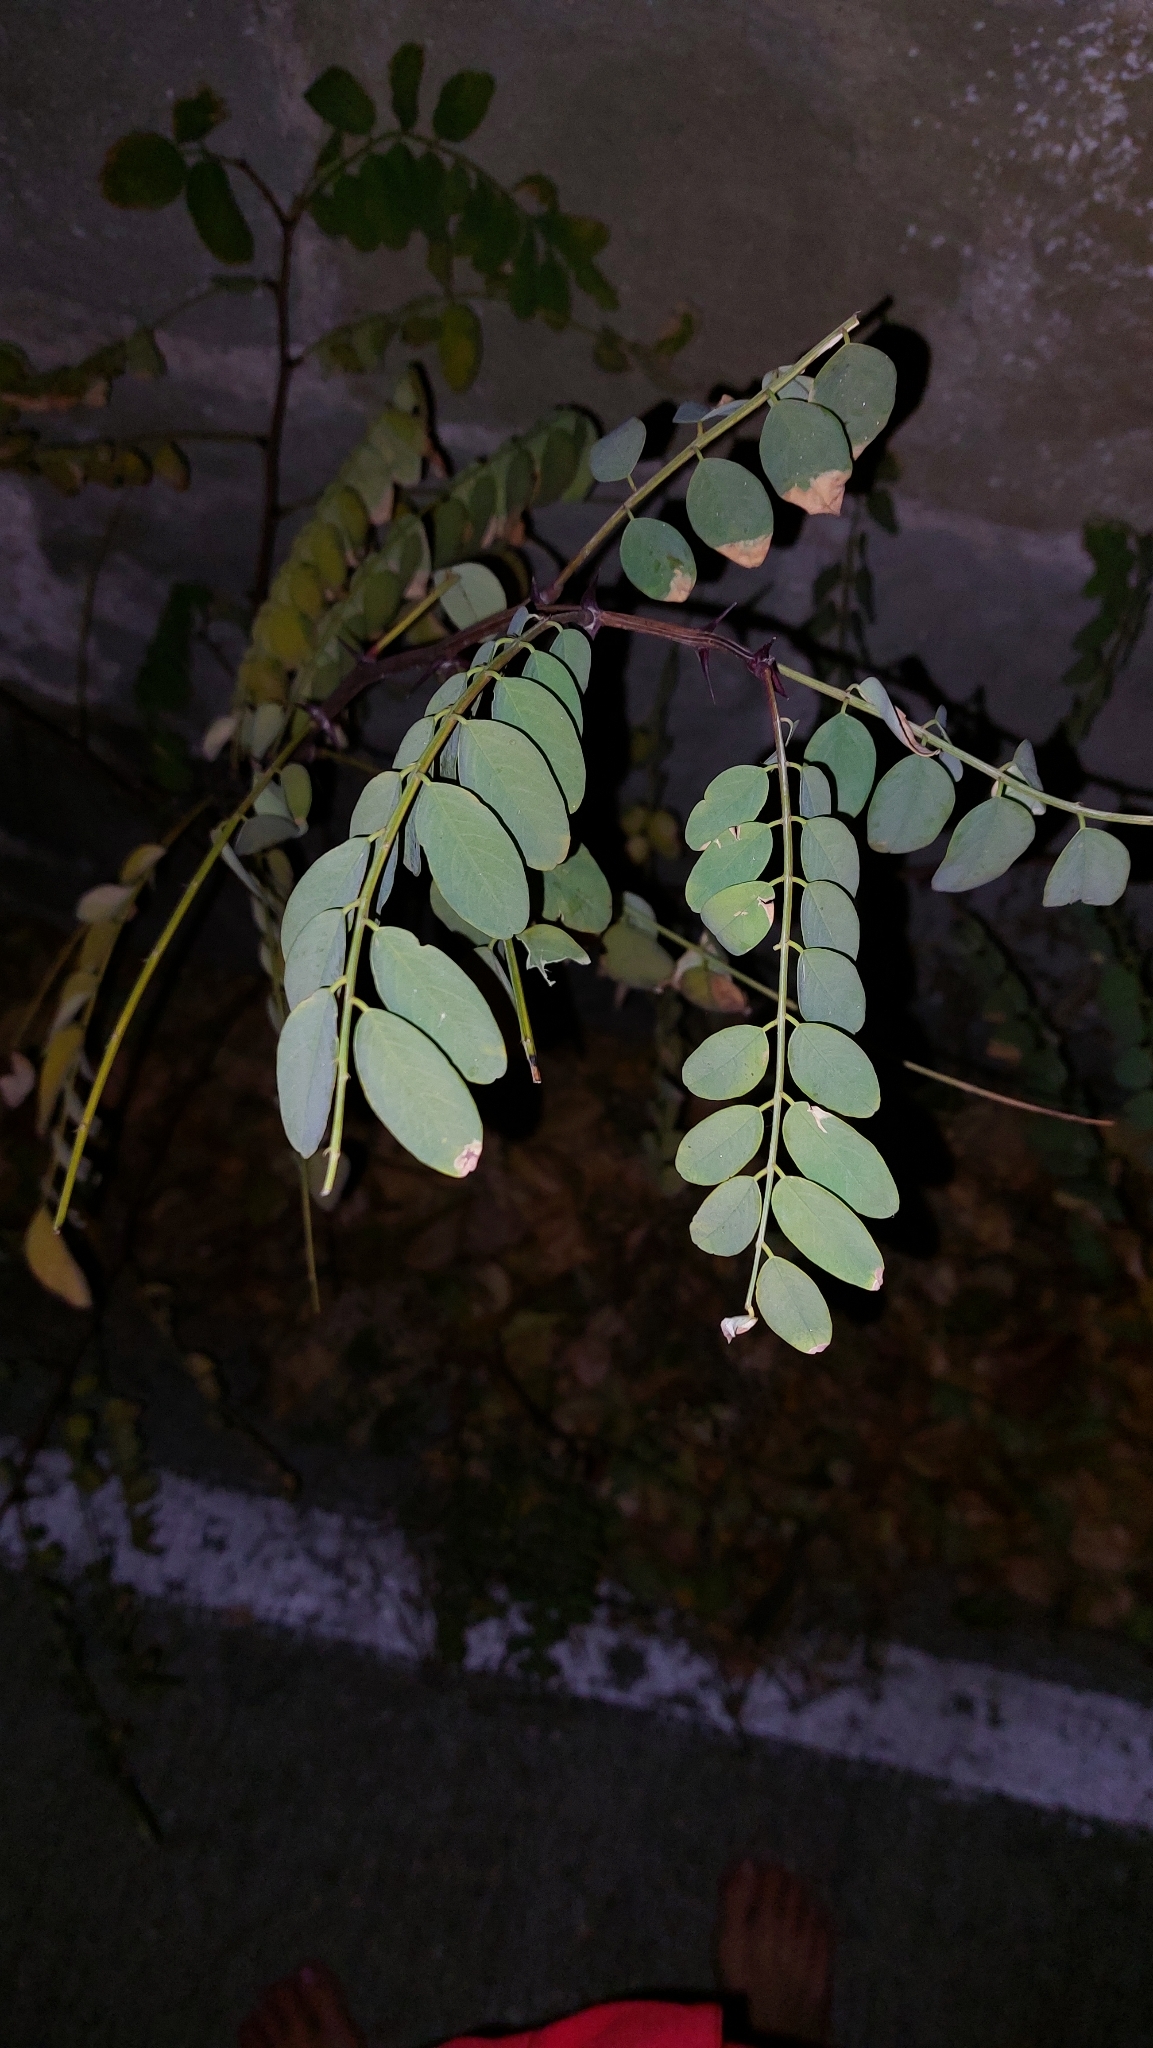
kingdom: Plantae
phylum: Tracheophyta
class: Magnoliopsida
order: Fabales
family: Fabaceae
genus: Robinia
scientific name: Robinia pseudoacacia
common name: Black locust
